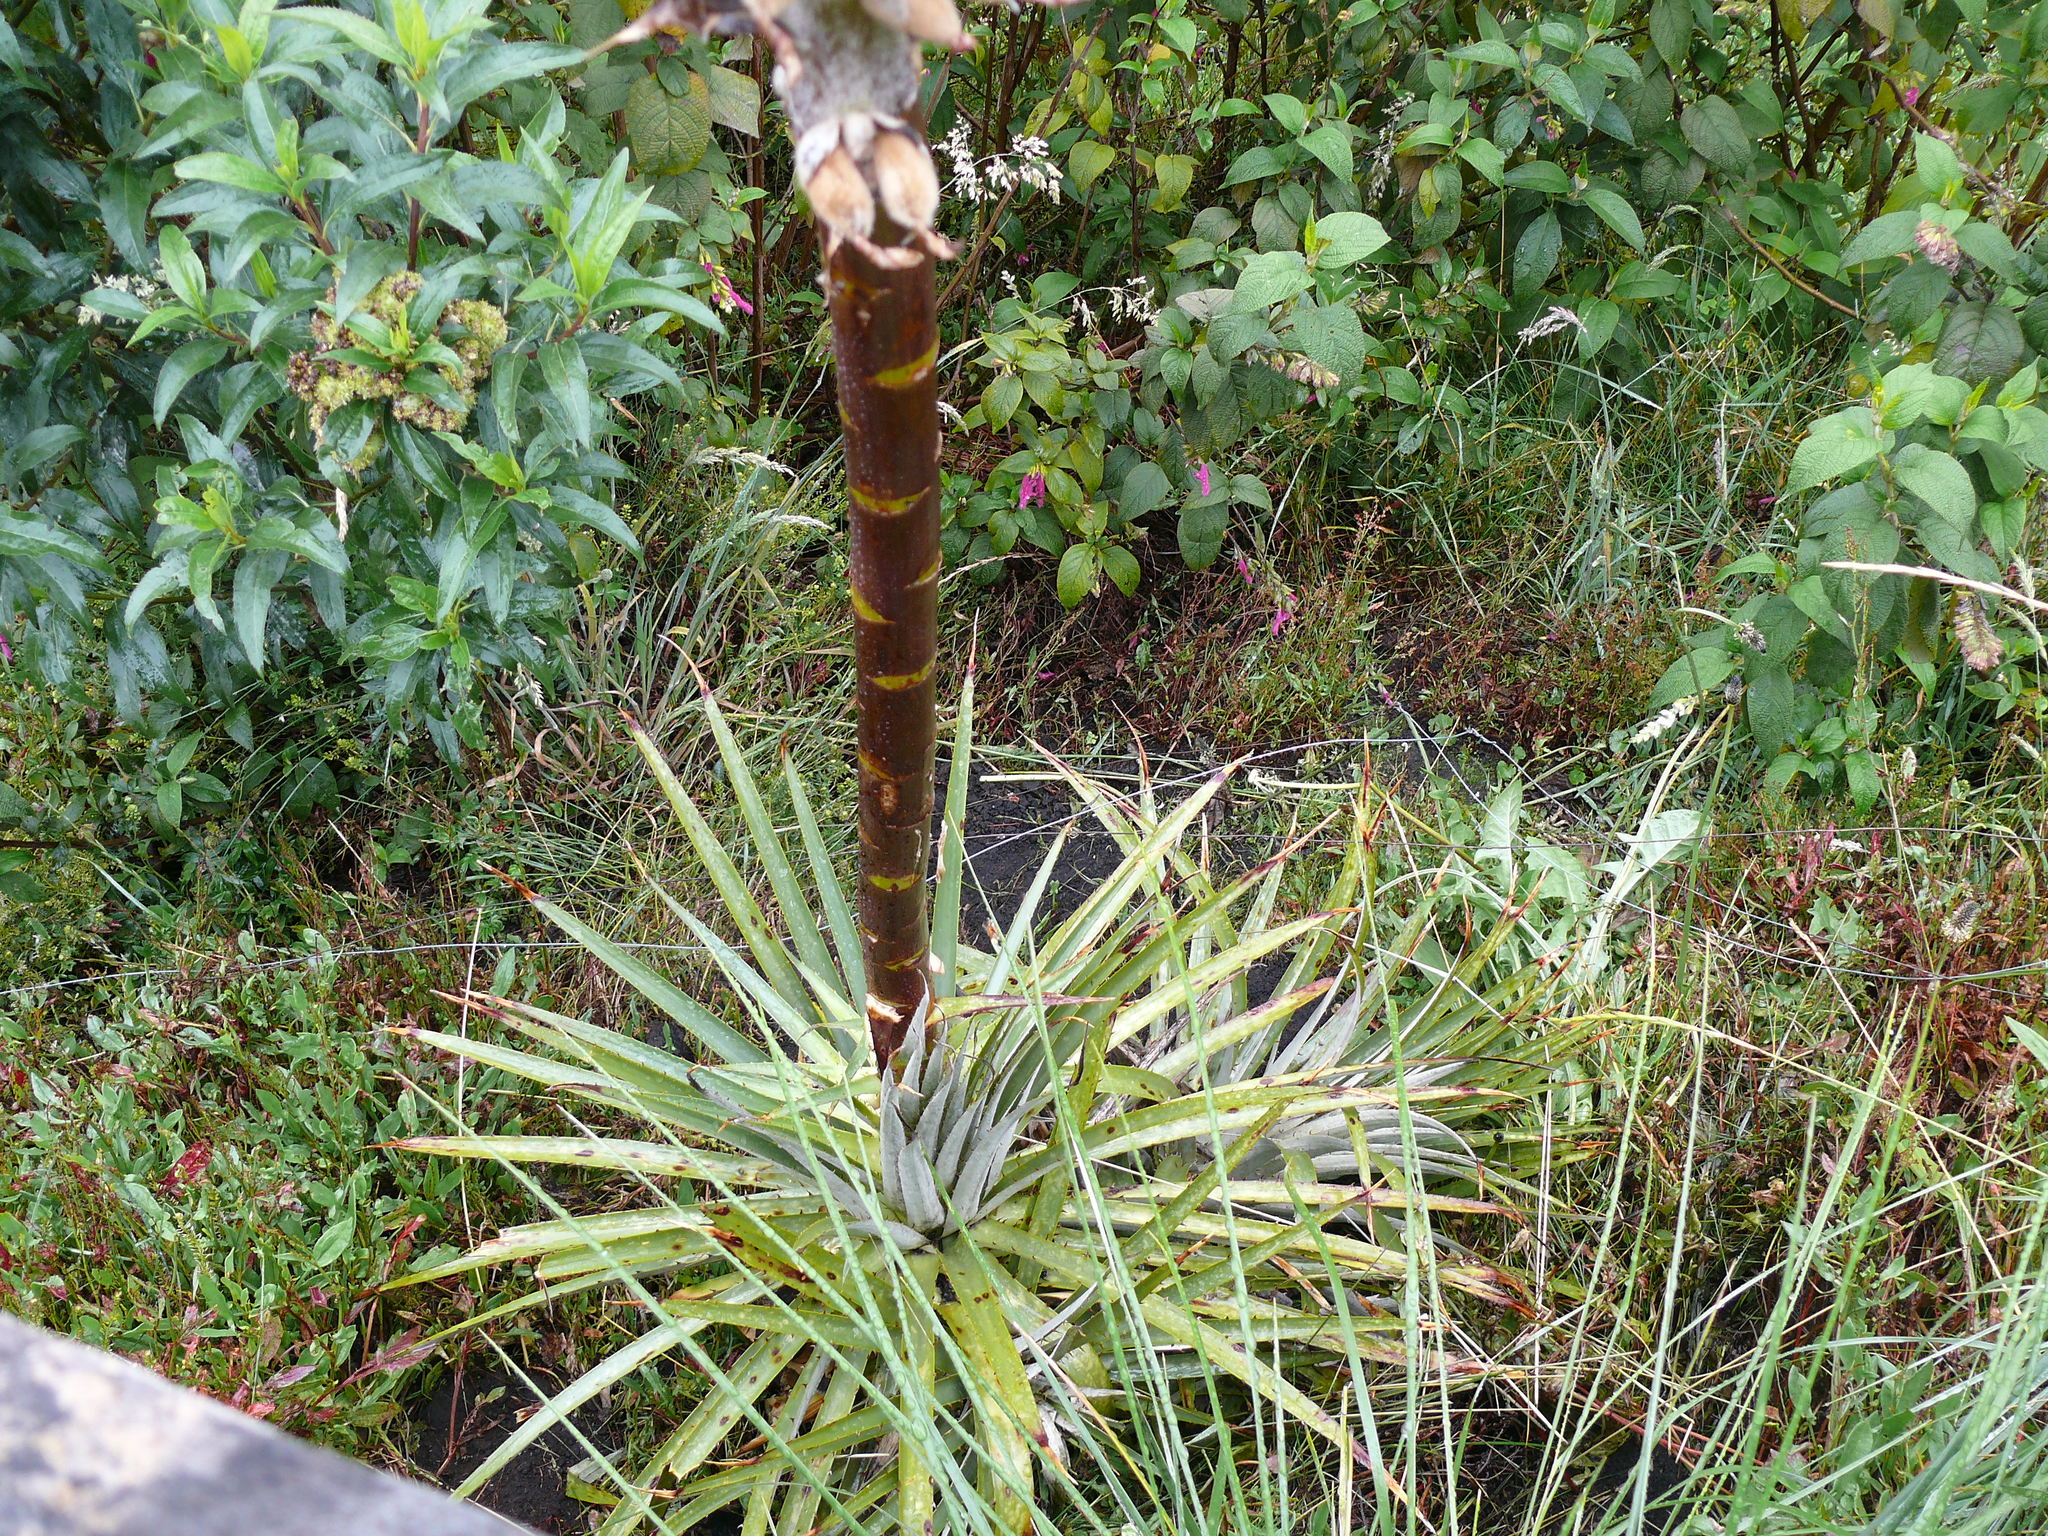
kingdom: Plantae
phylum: Tracheophyta
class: Liliopsida
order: Poales
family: Bromeliaceae
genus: Puya
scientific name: Puya glomerifera
